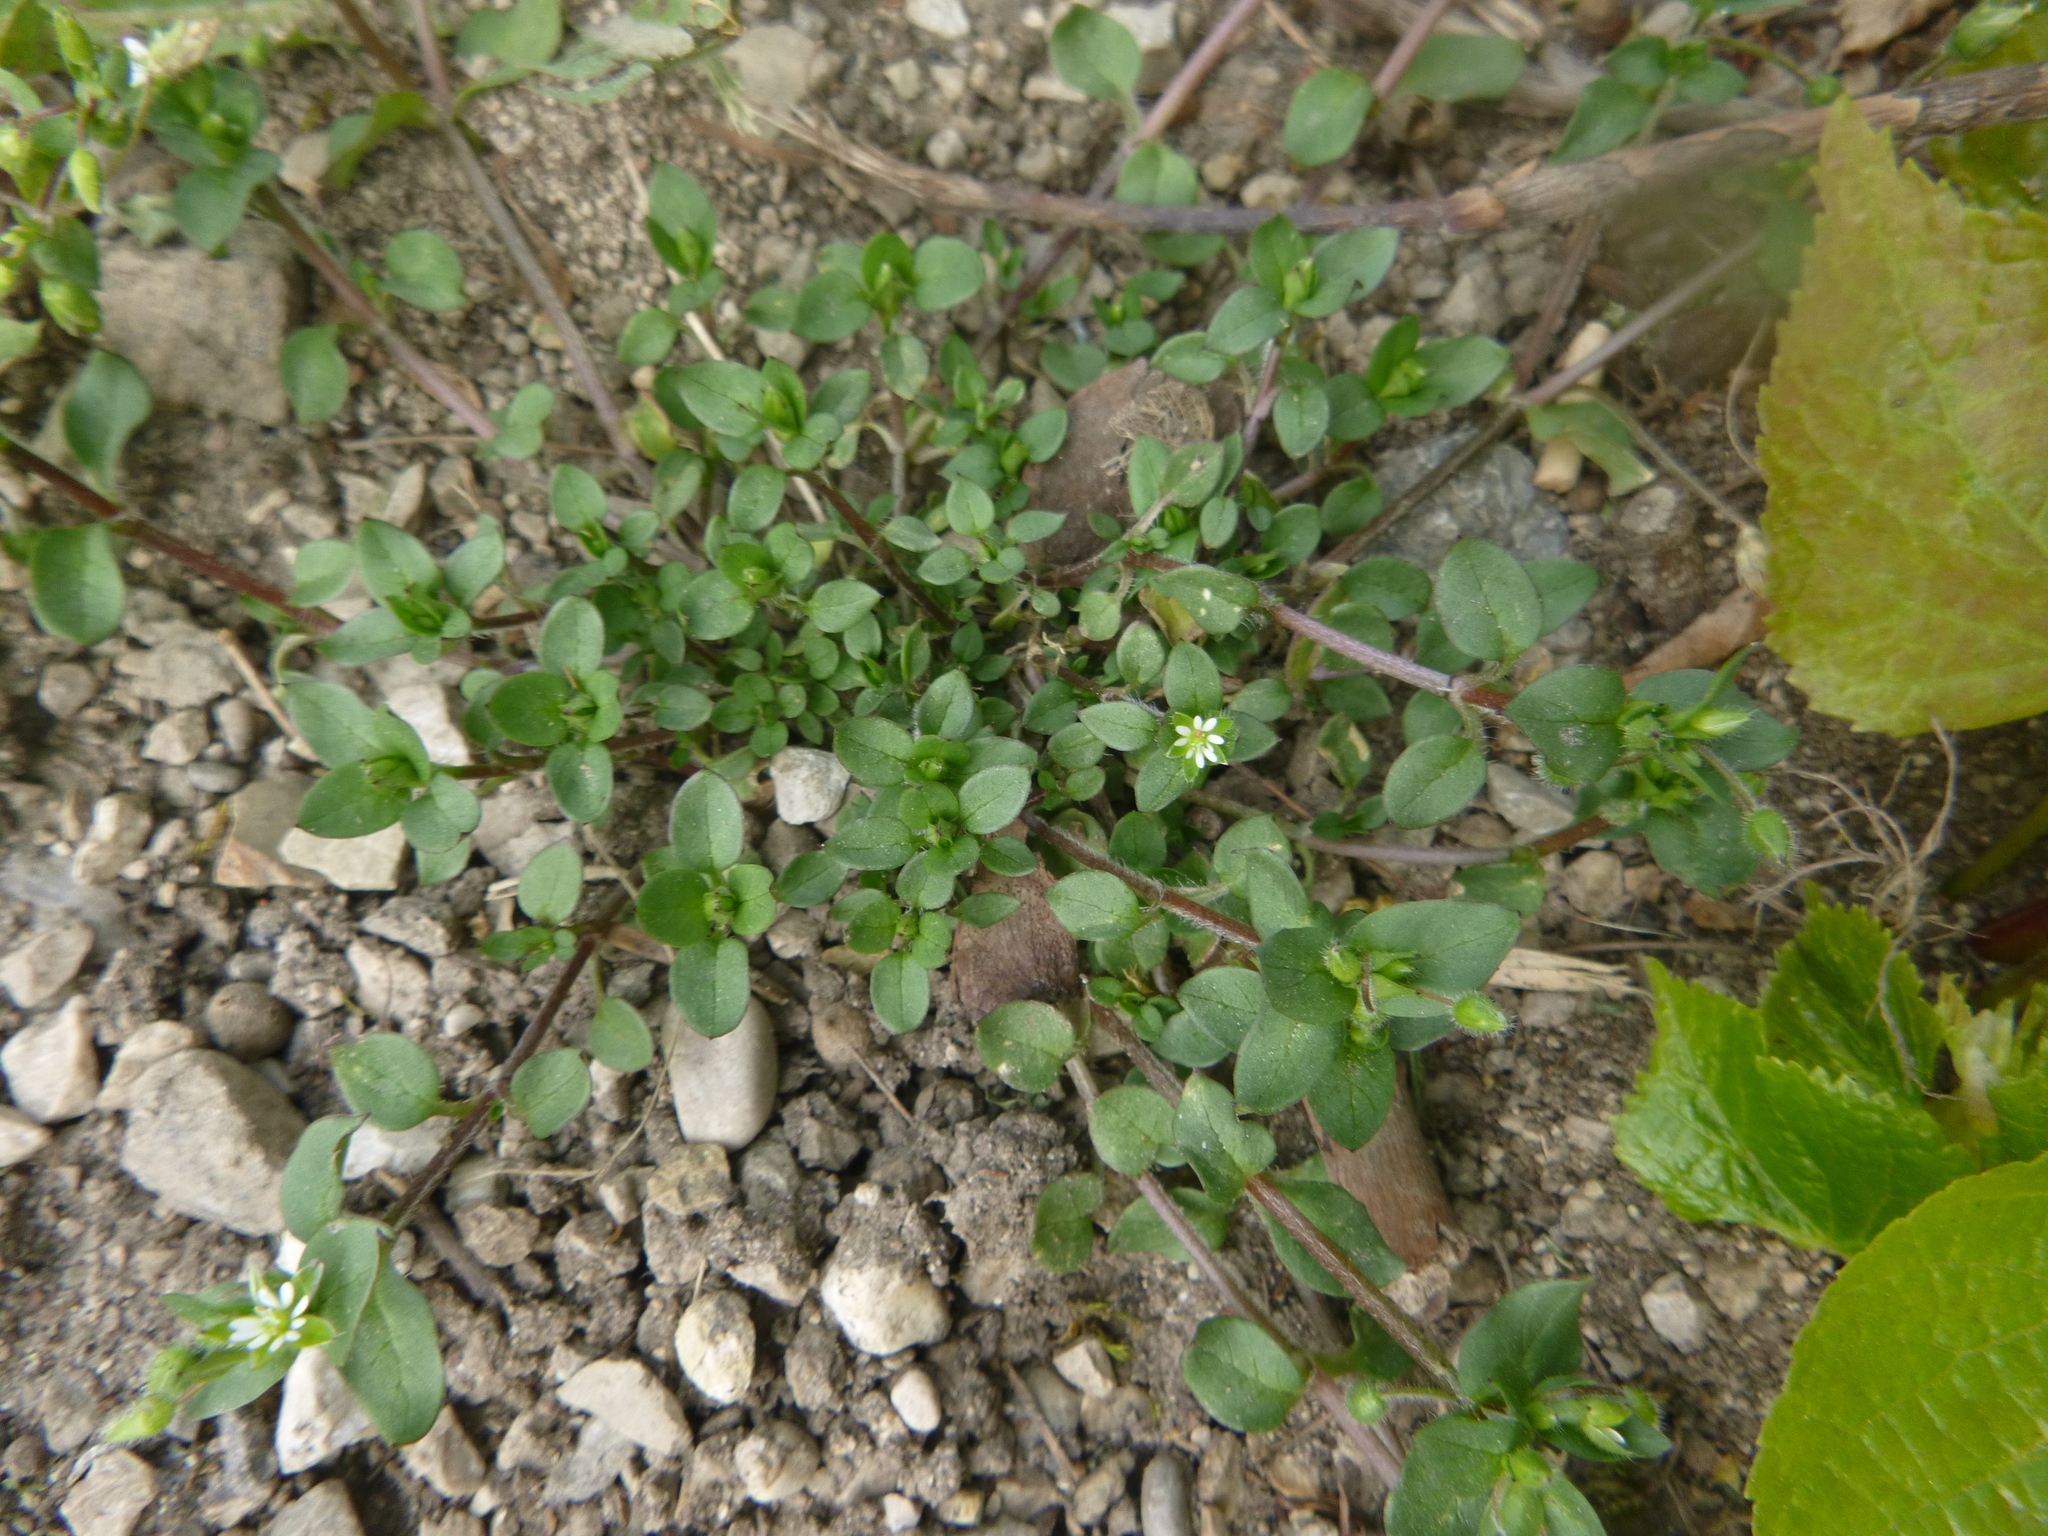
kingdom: Plantae
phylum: Tracheophyta
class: Magnoliopsida
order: Caryophyllales
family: Caryophyllaceae
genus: Stellaria
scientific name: Stellaria media
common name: Common chickweed
